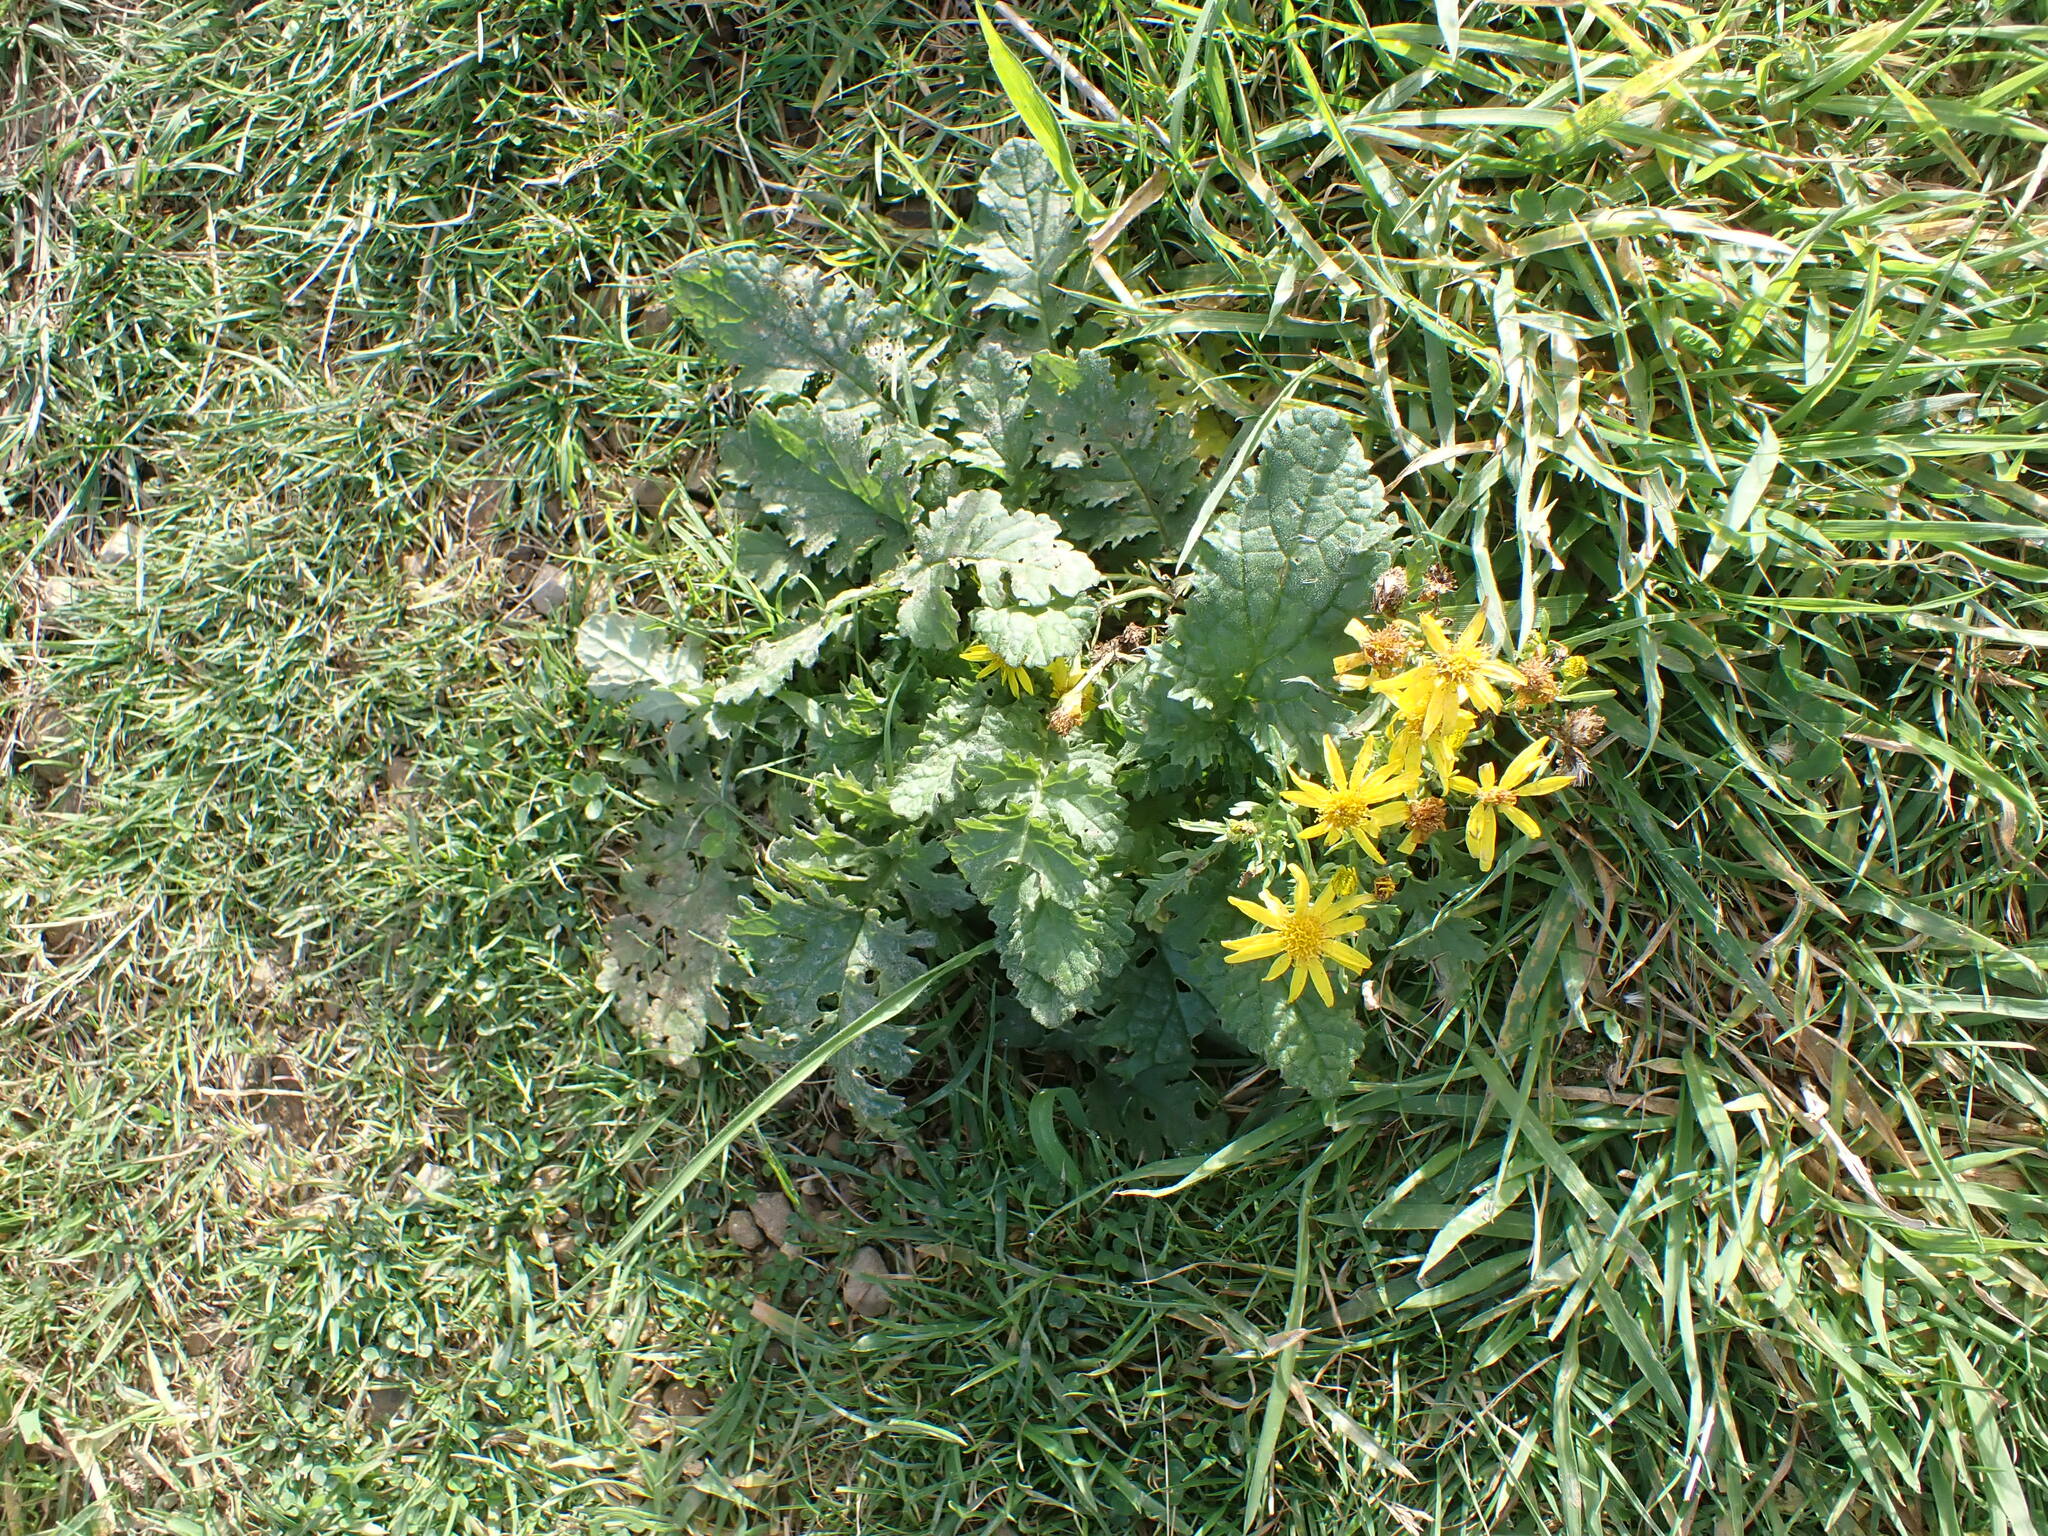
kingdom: Plantae
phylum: Tracheophyta
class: Magnoliopsida
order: Asterales
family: Asteraceae
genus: Jacobaea
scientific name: Jacobaea vulgaris
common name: Stinking willie
